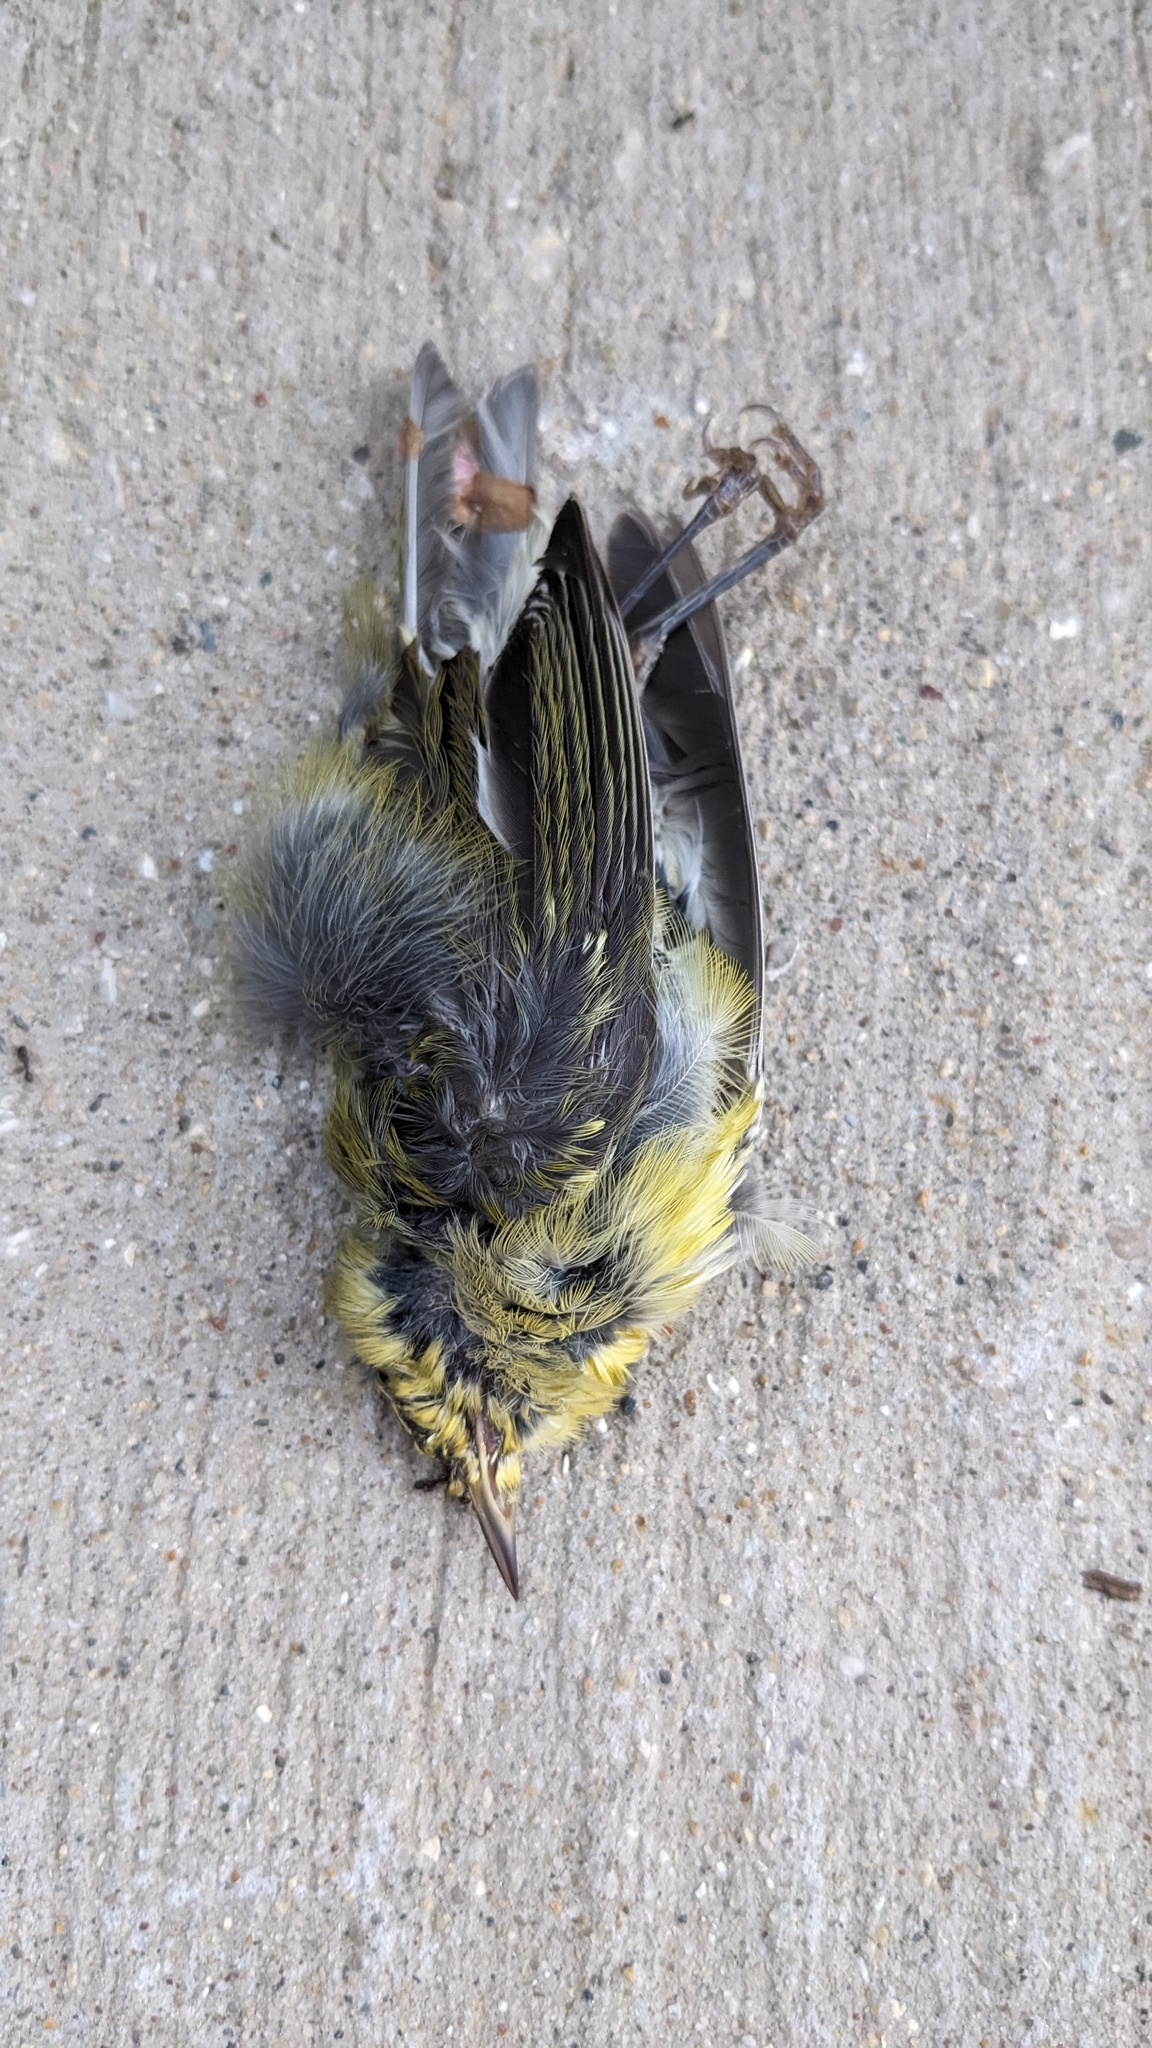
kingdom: Animalia
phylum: Chordata
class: Aves
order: Passeriformes
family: Parulidae
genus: Leiothlypis
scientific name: Leiothlypis peregrina
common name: Tennessee warbler
